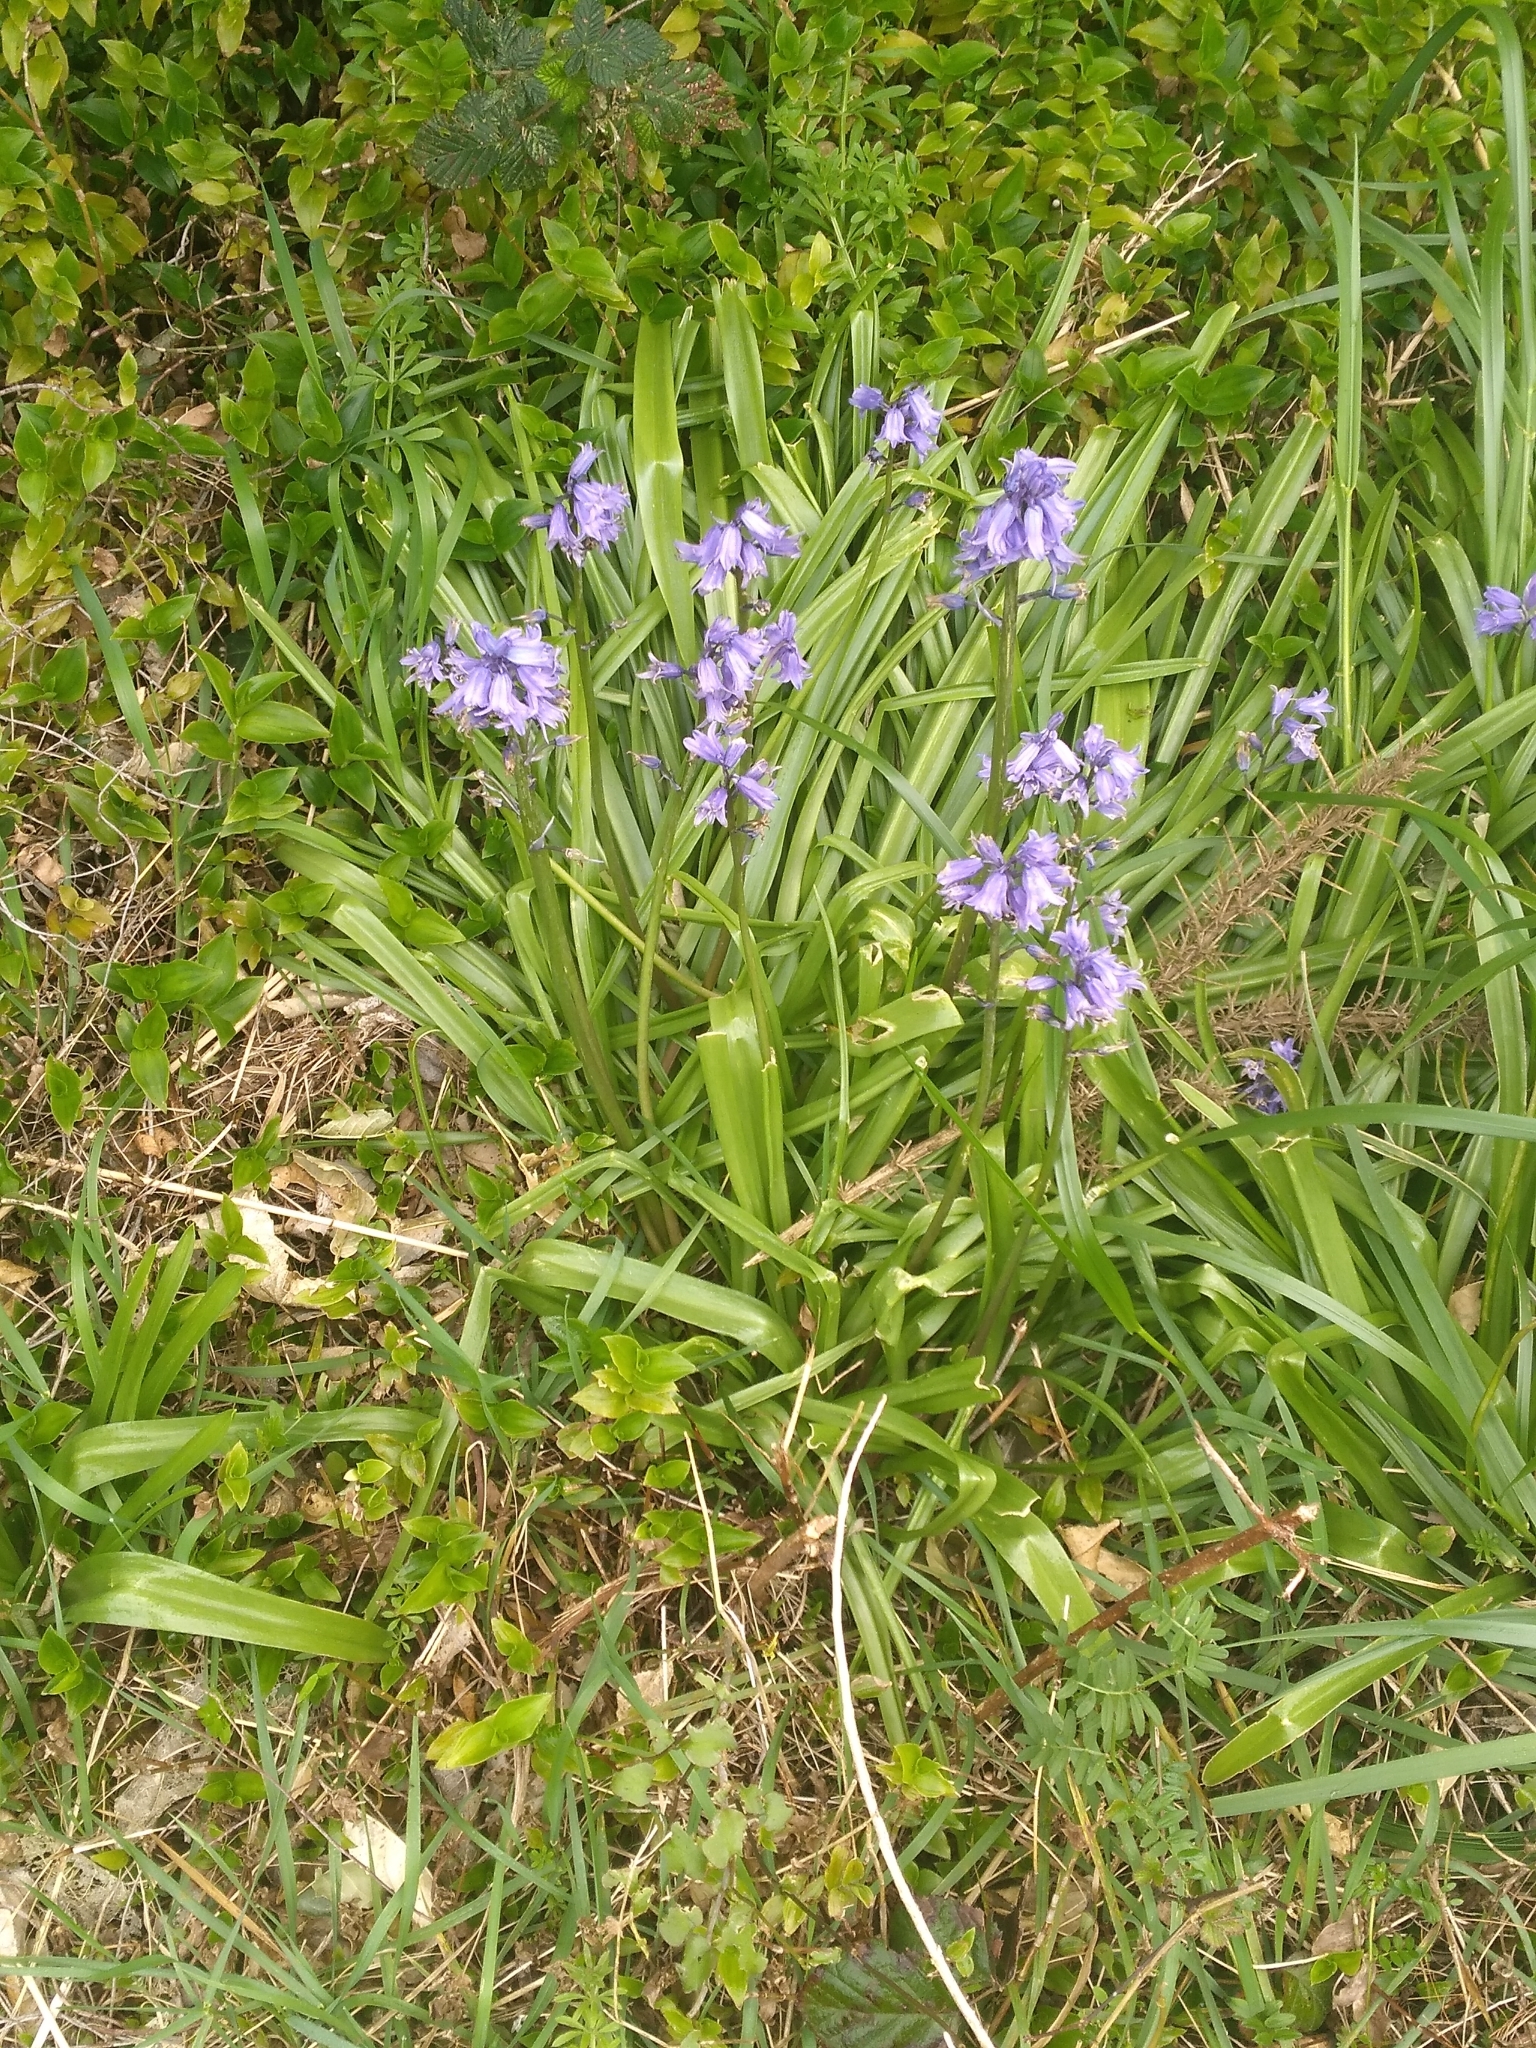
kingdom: Plantae
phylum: Tracheophyta
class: Liliopsida
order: Asparagales
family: Asparagaceae
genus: Hyacinthoides
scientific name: Hyacinthoides massartiana
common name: Hyacinthoides
